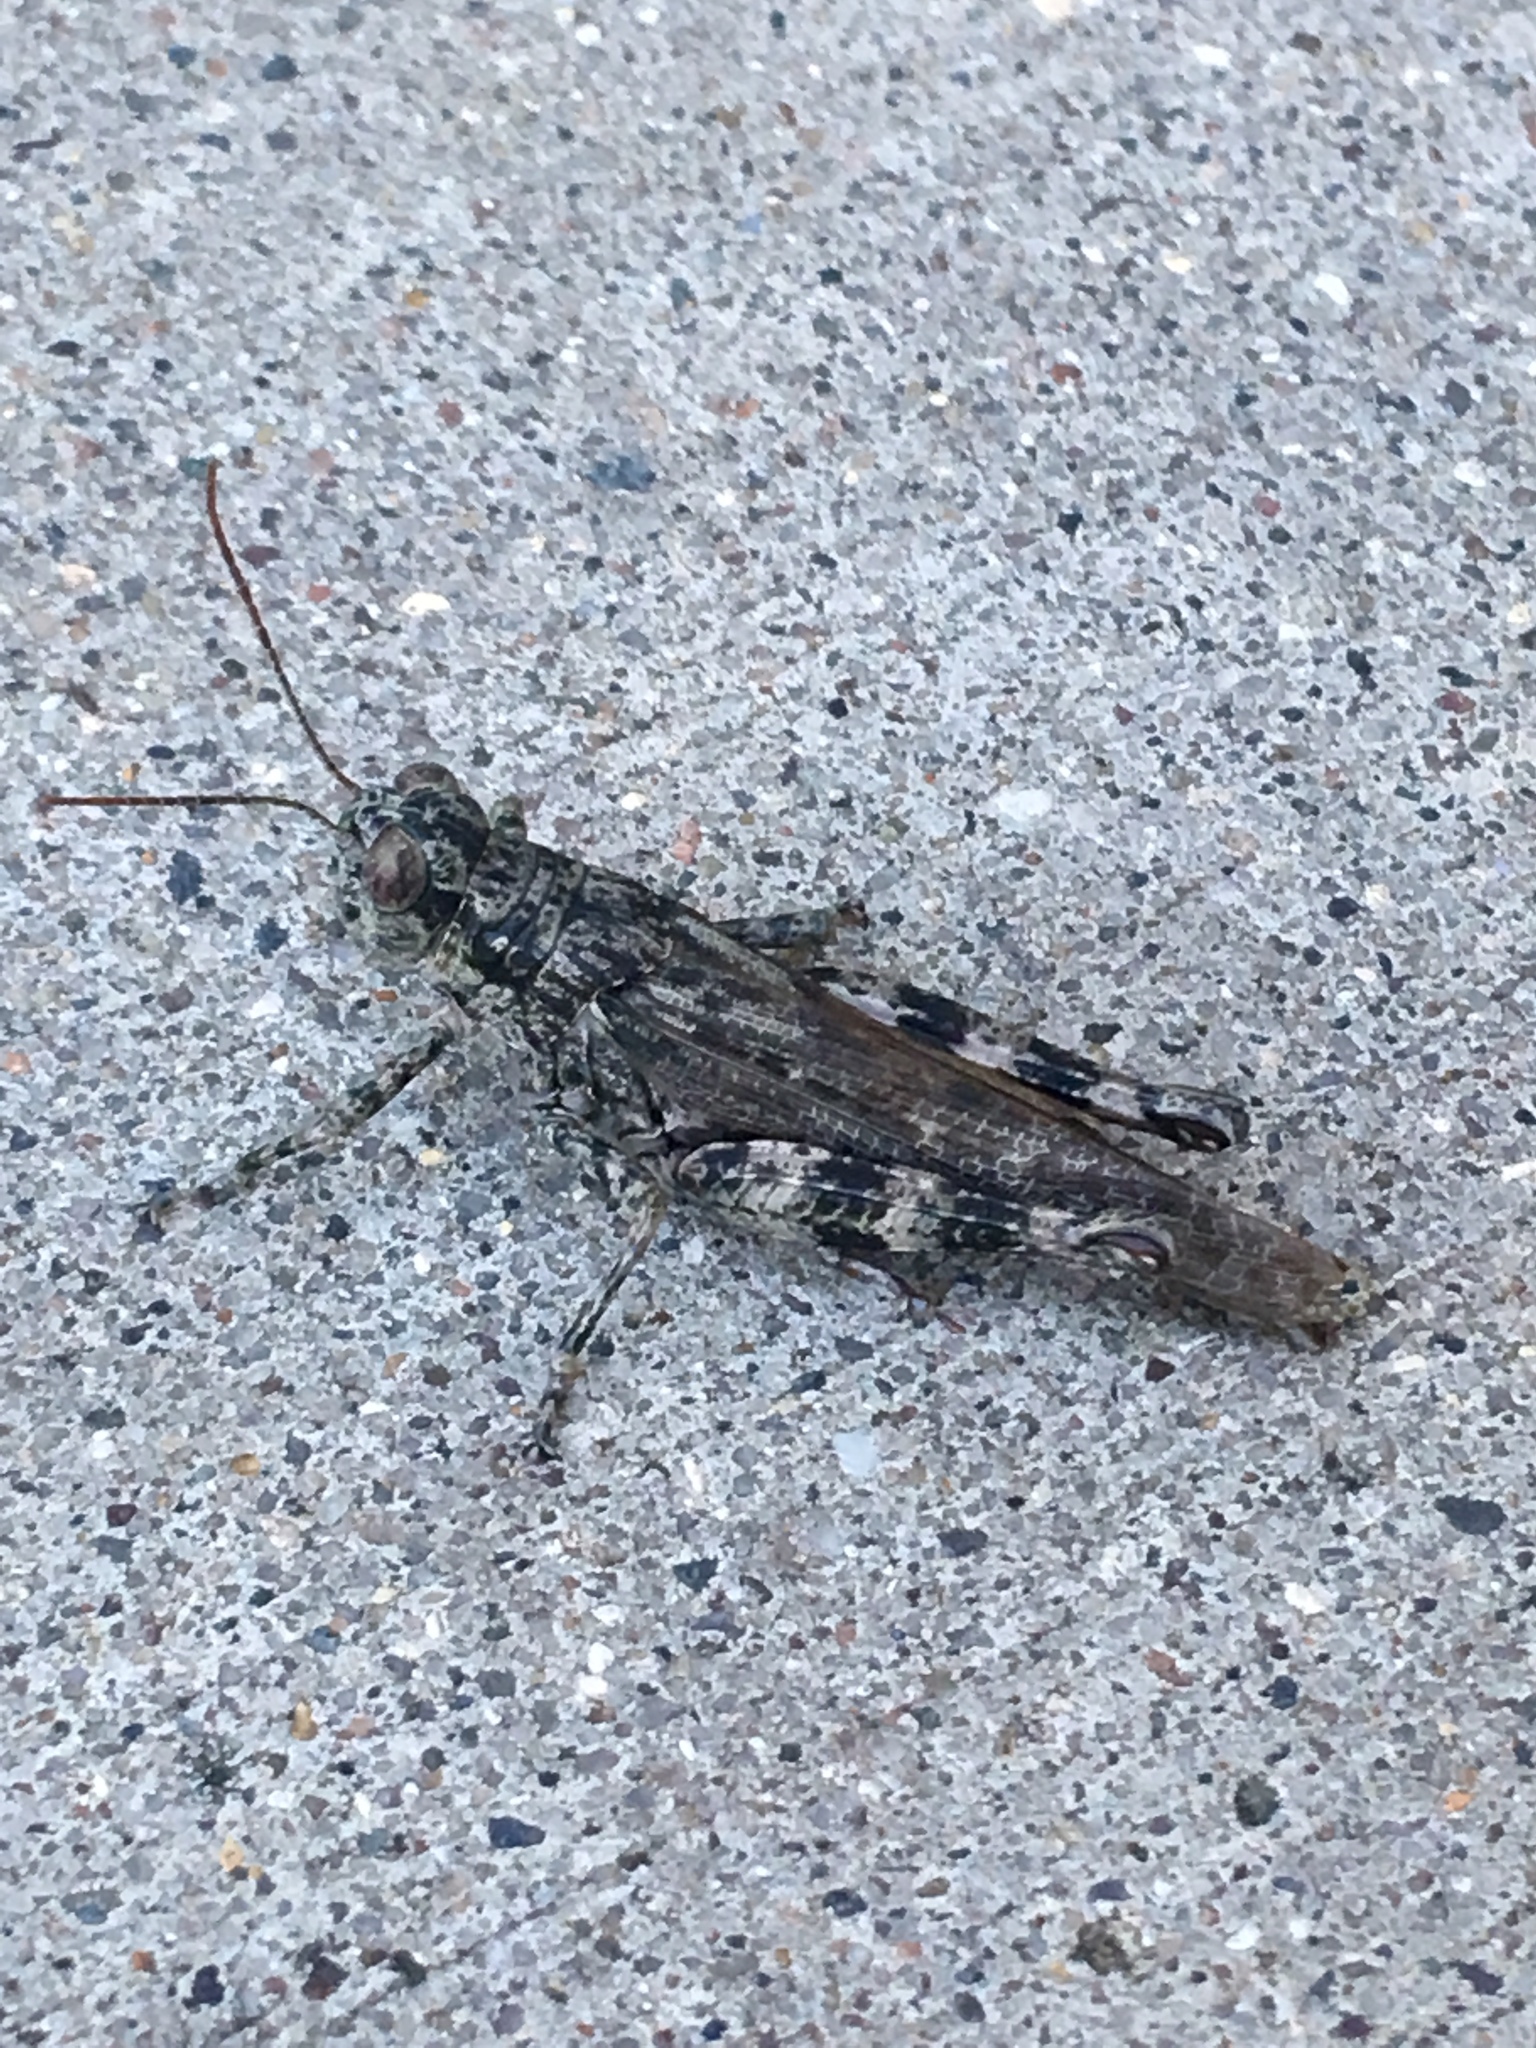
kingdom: Animalia
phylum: Arthropoda
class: Insecta
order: Orthoptera
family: Acrididae
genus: Melanoplus
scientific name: Melanoplus punctulatus
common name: Pine-tree spur-throat grasshopper
